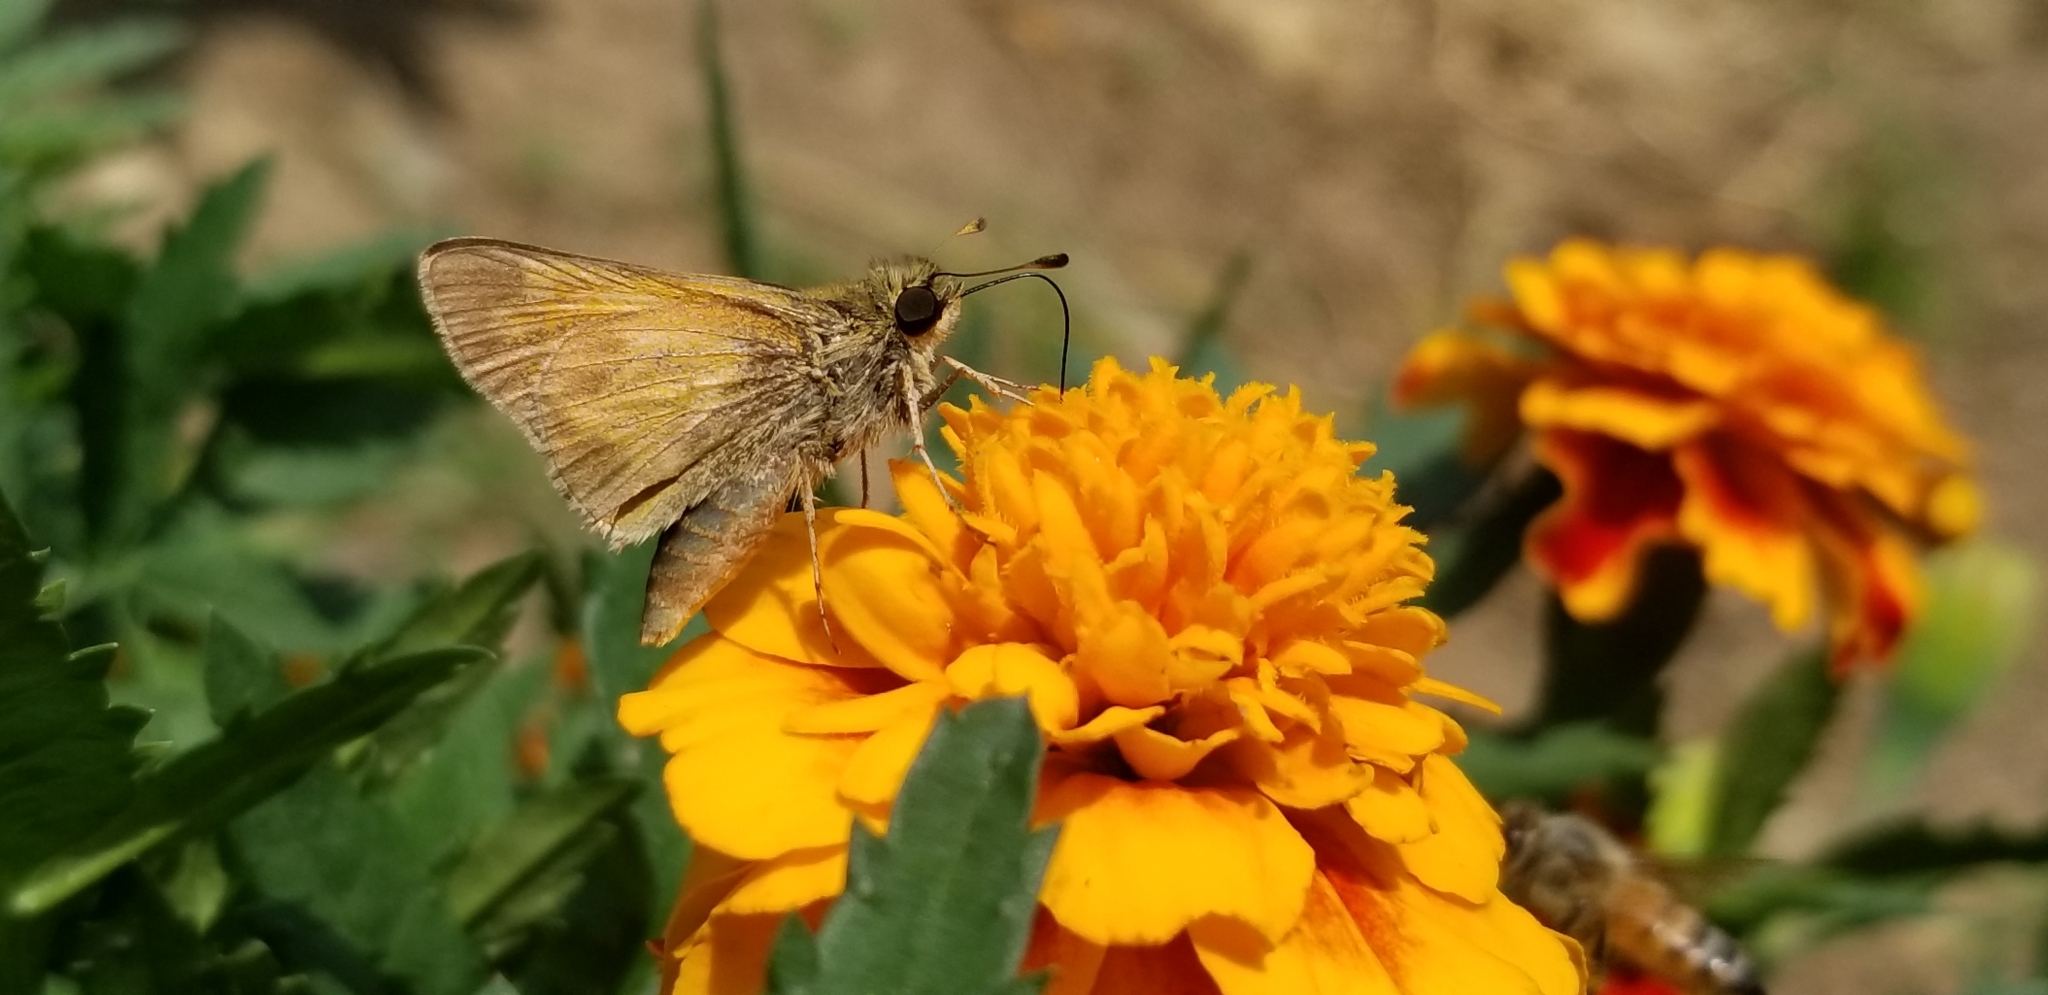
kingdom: Animalia
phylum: Arthropoda
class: Insecta
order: Lepidoptera
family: Hesperiidae
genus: Atalopedes
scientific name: Atalopedes
